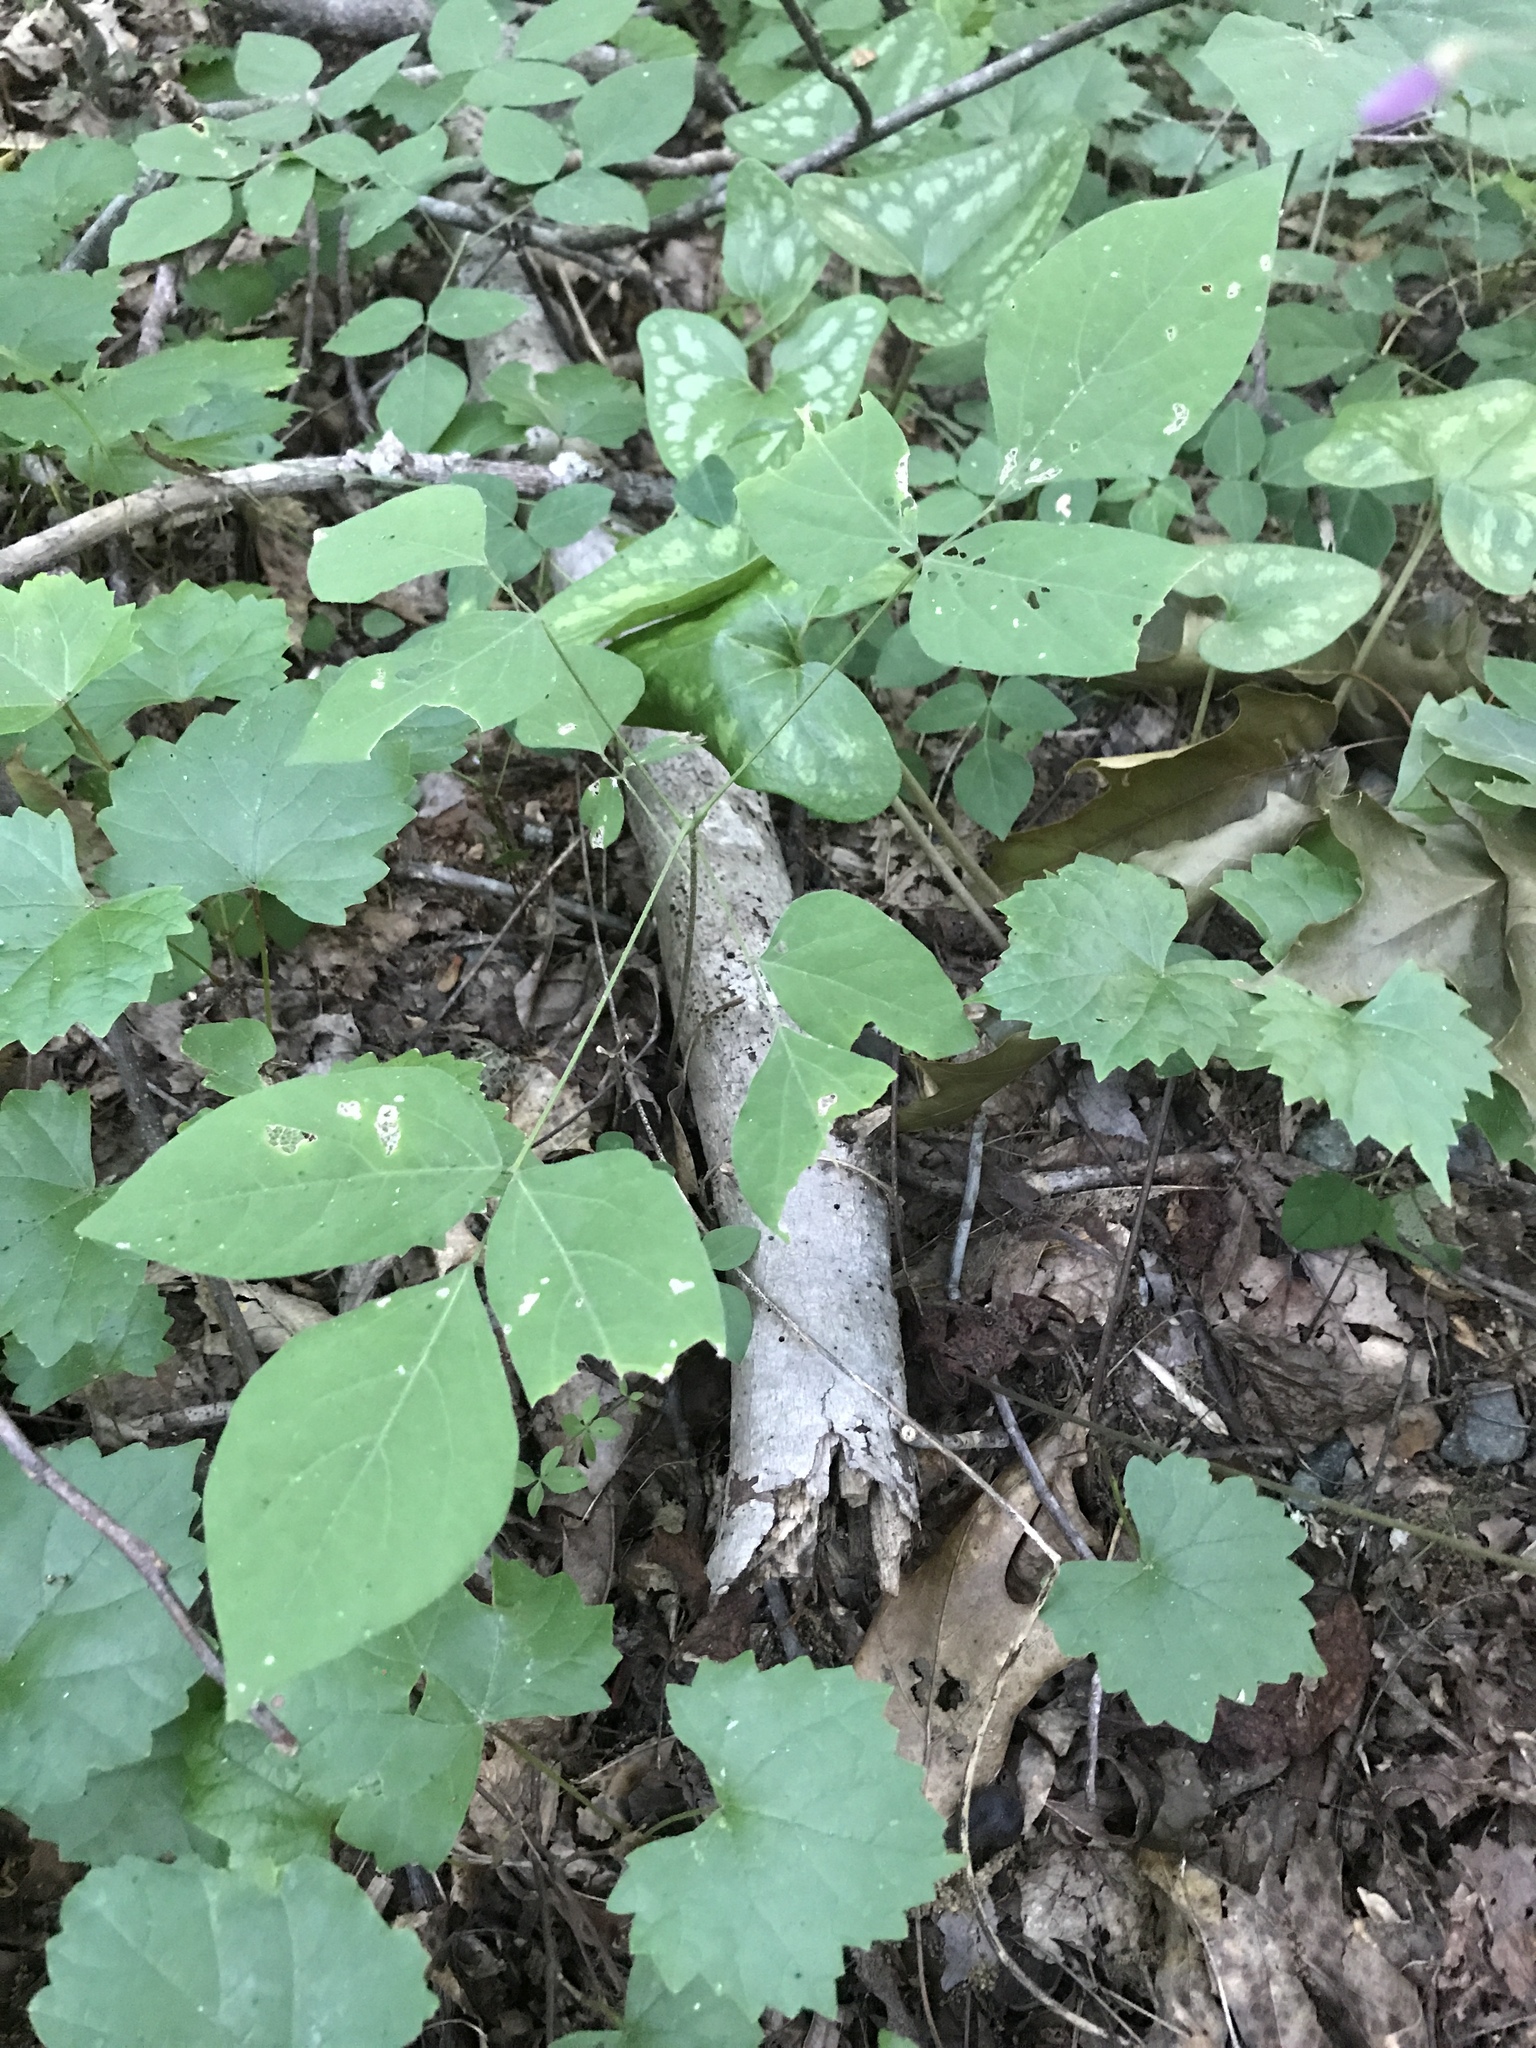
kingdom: Plantae
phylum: Tracheophyta
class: Magnoliopsida
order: Fabales
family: Fabaceae
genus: Hylodesmum
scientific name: Hylodesmum nudiflorum
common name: Bare-stemmed tick-trefoil
